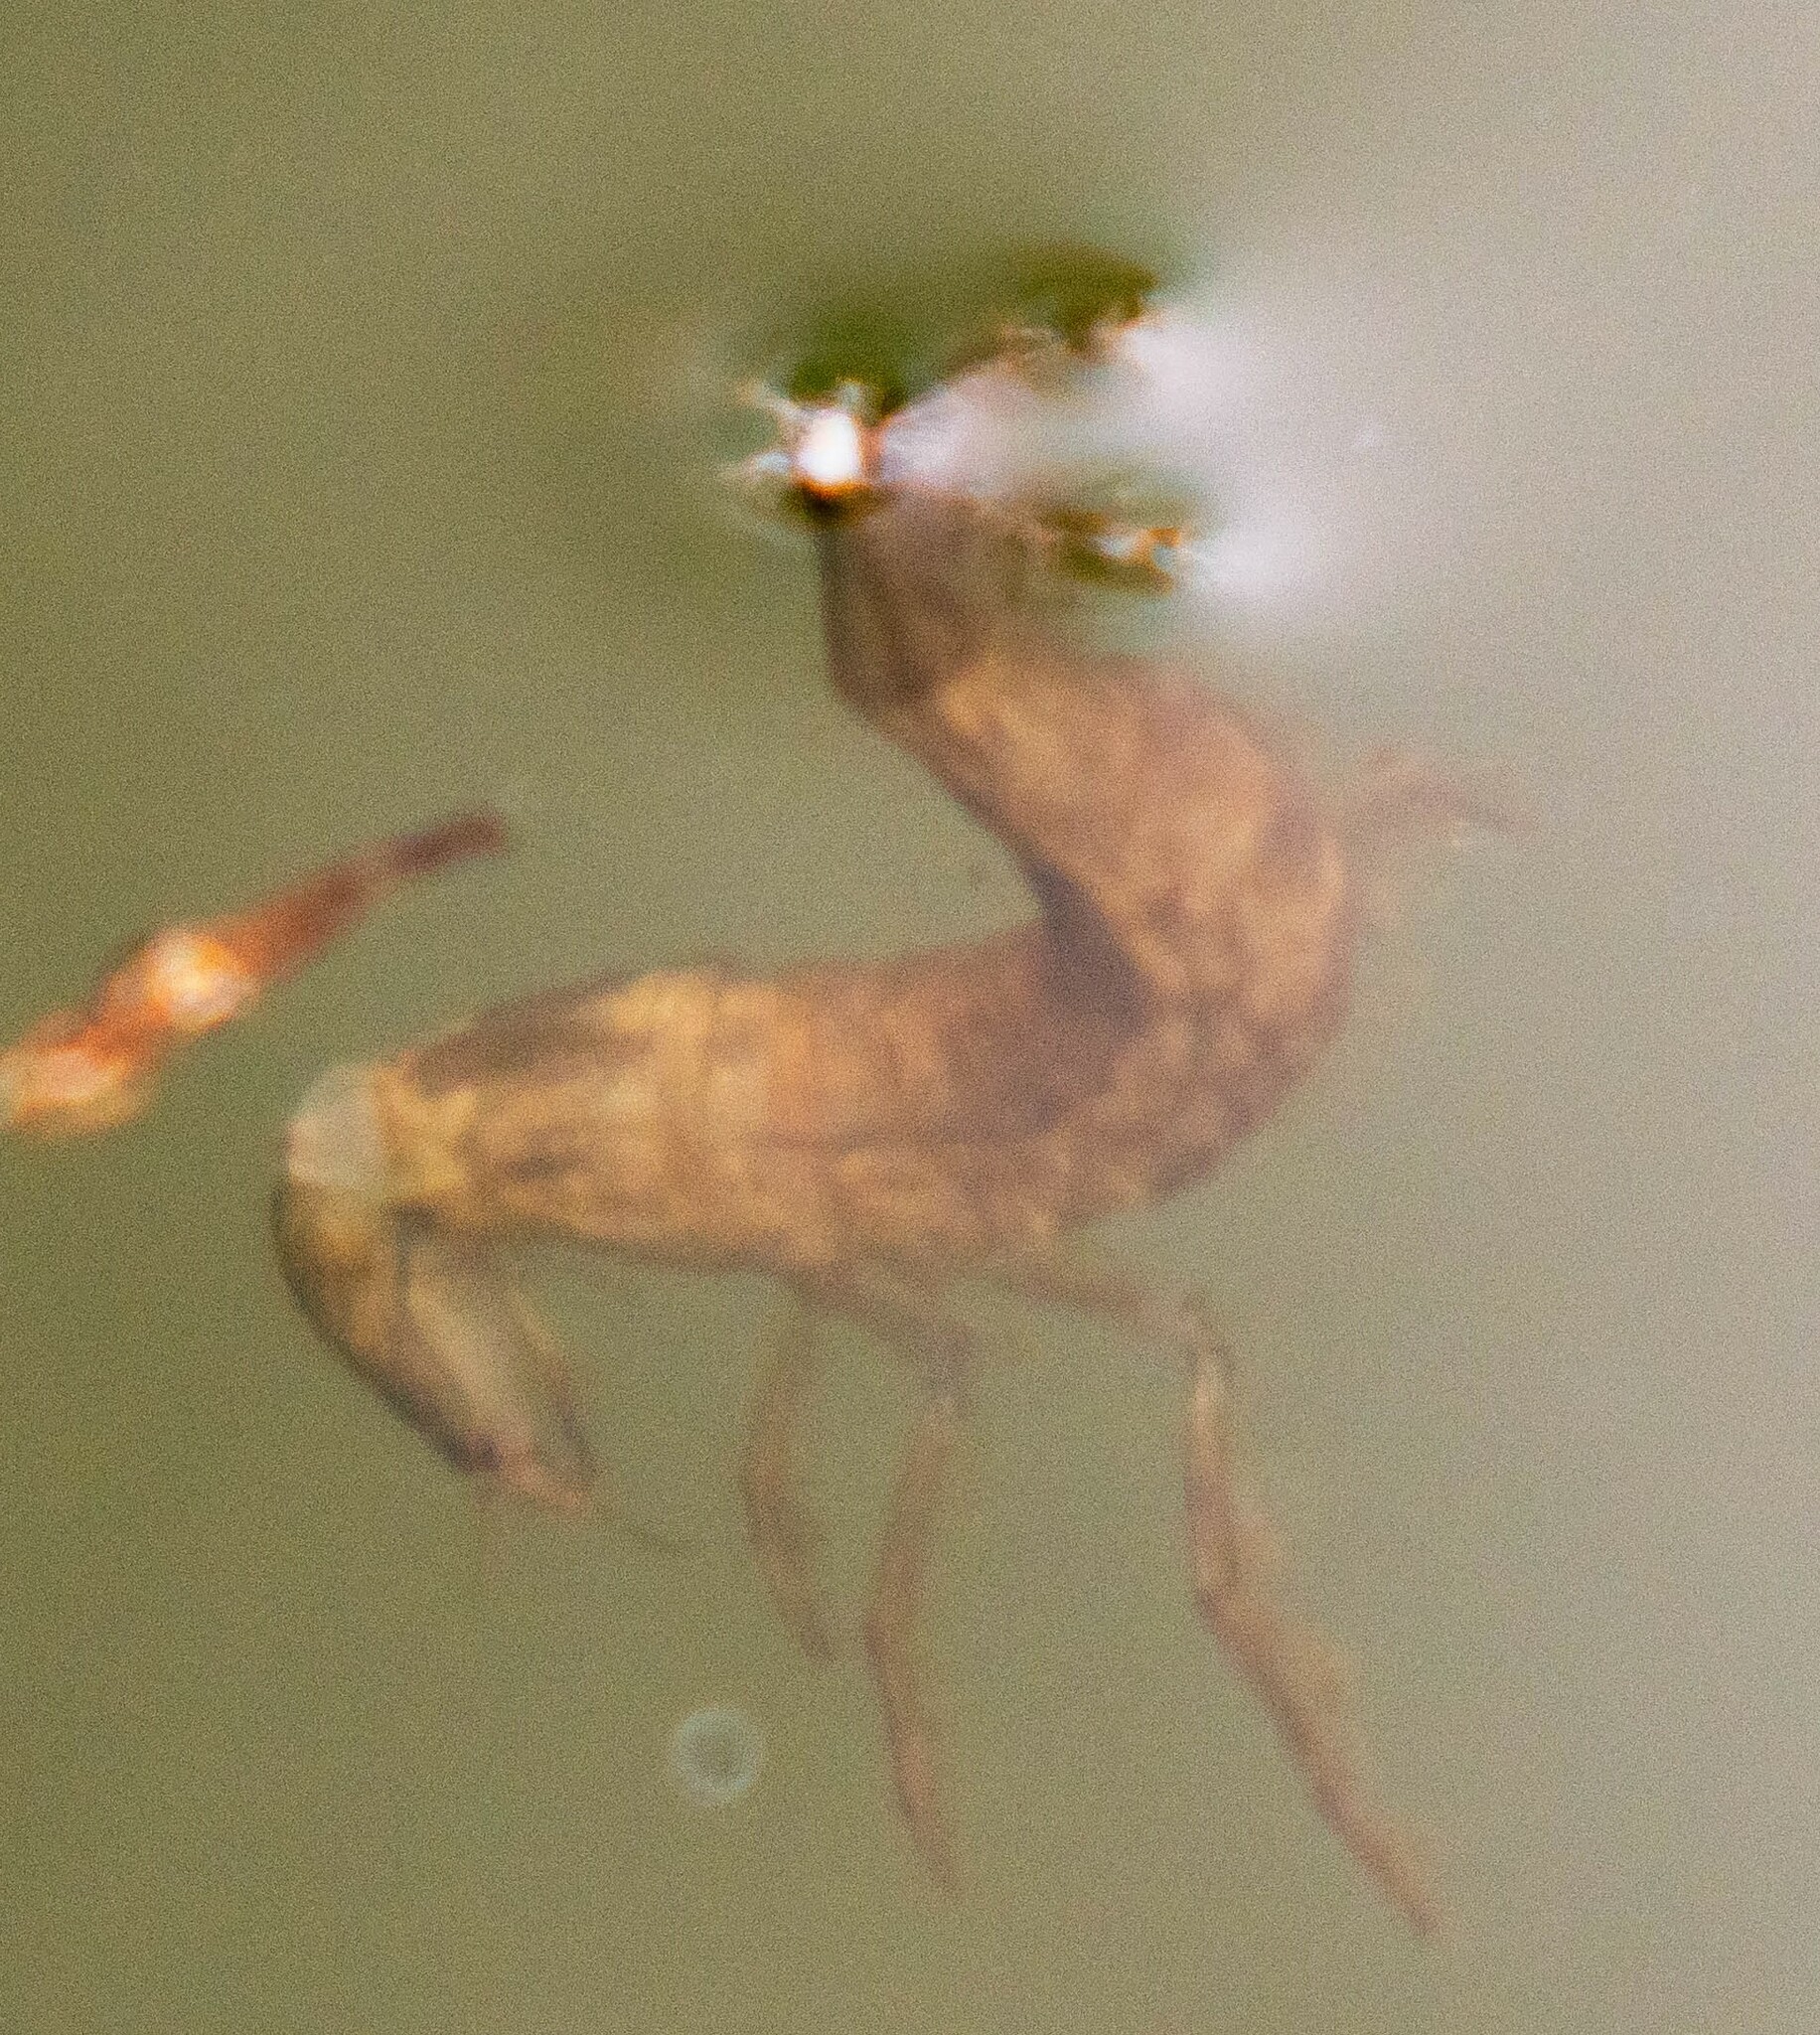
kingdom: Animalia
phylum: Arthropoda
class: Insecta
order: Coleoptera
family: Dytiscidae
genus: Dytiscus
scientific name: Dytiscus
